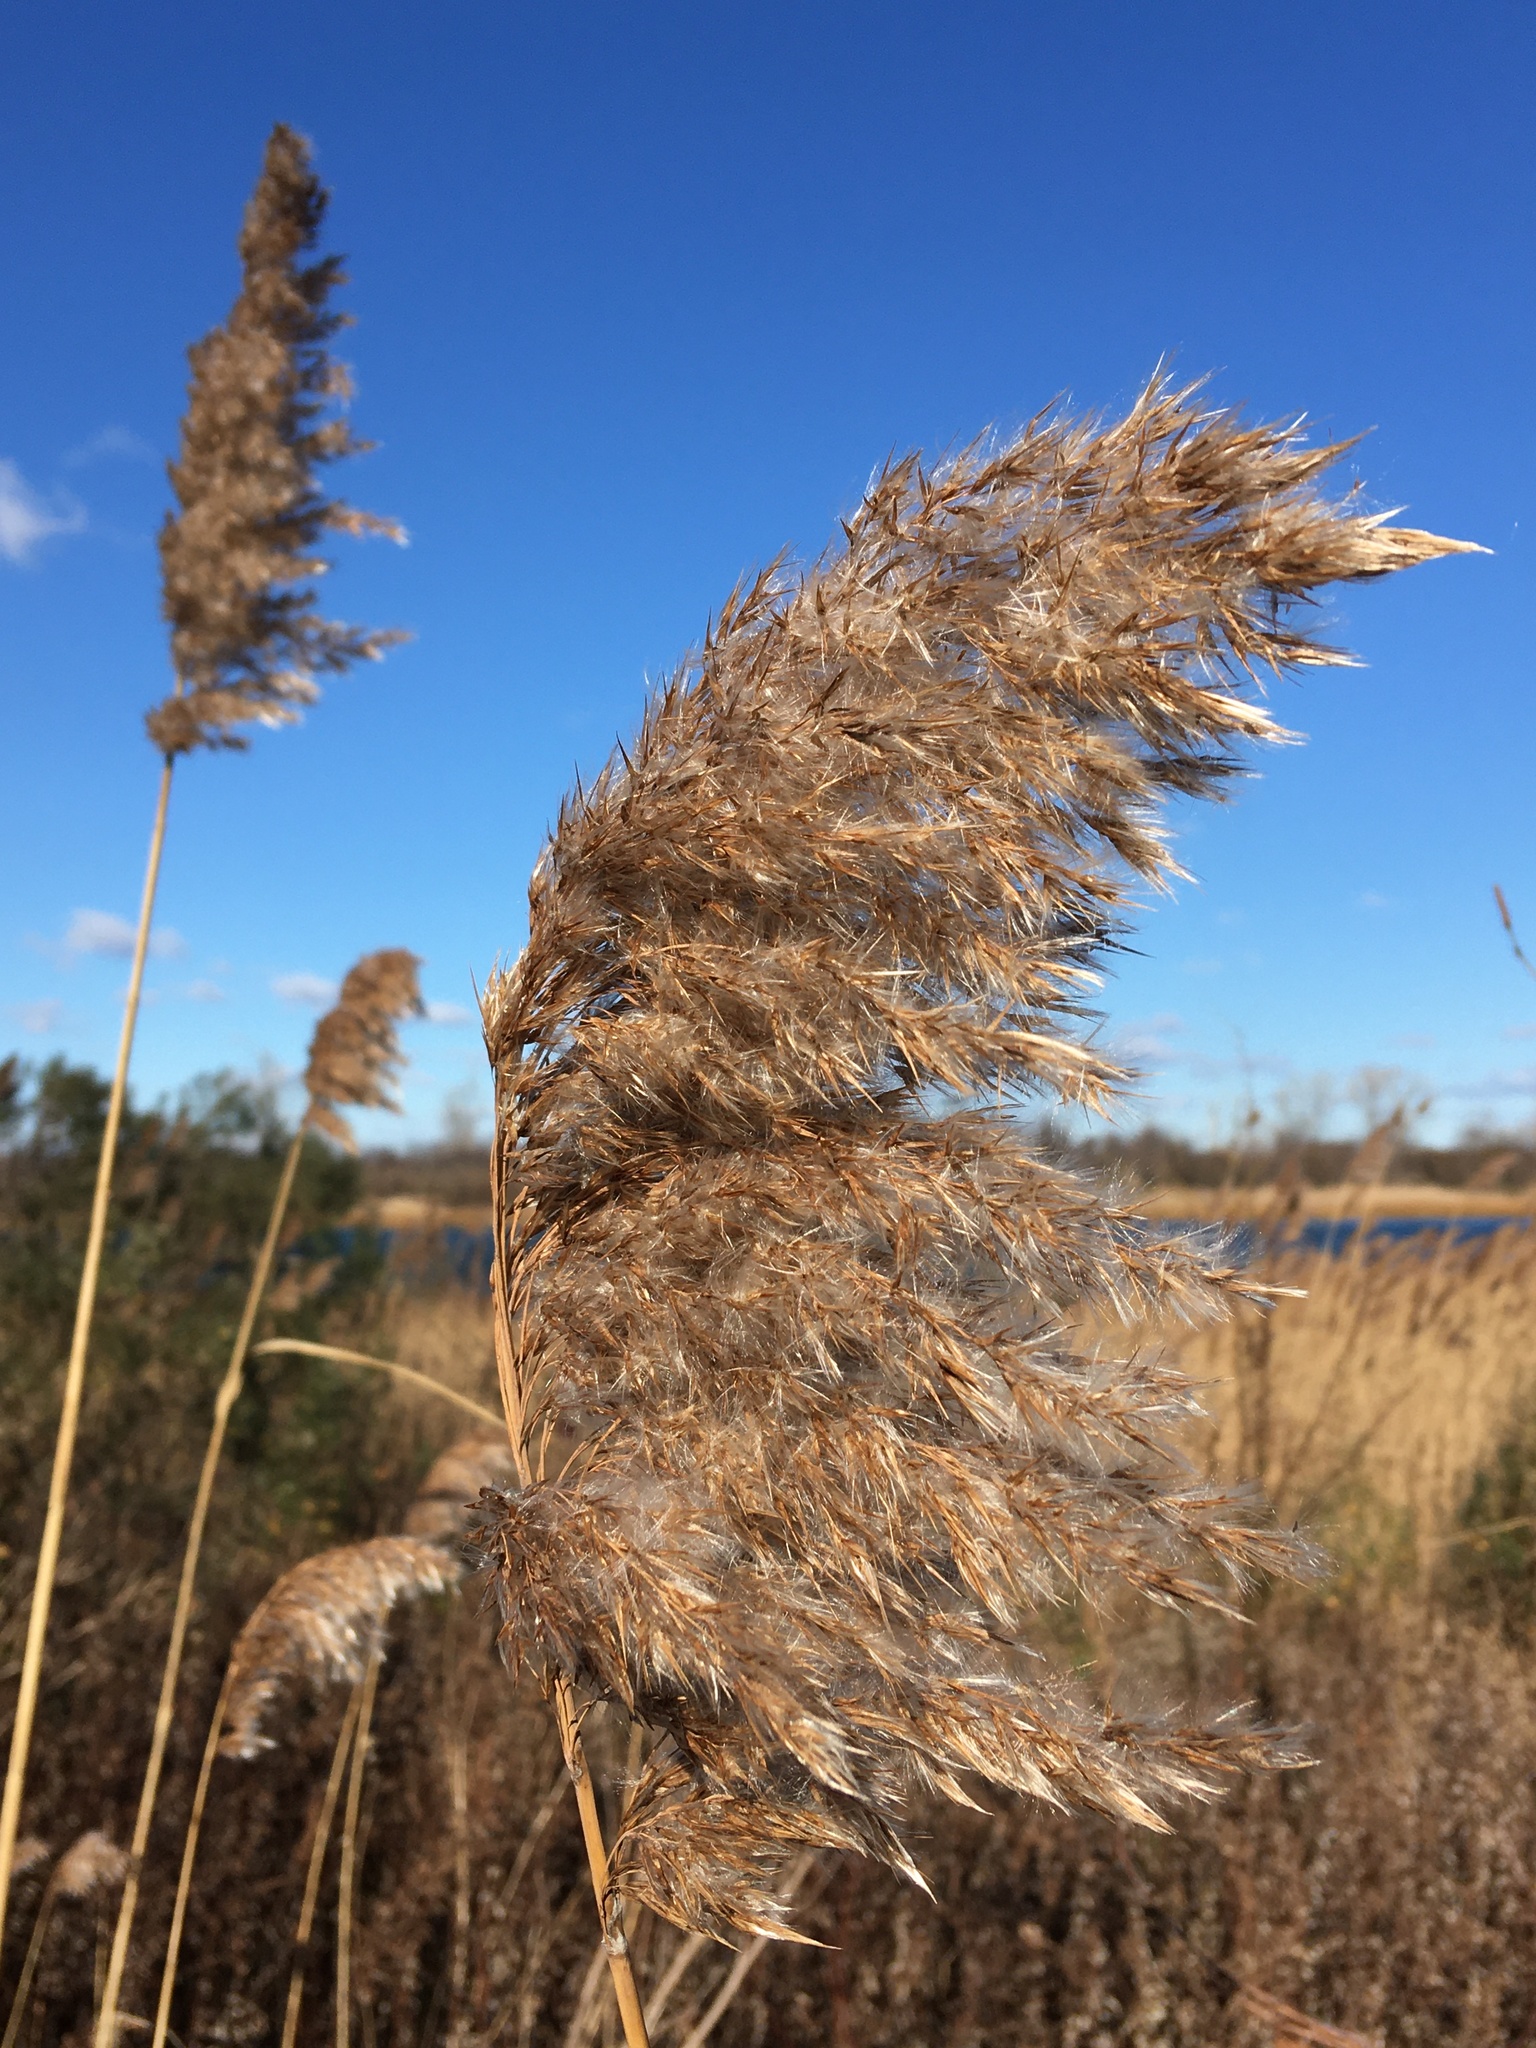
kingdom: Plantae
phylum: Tracheophyta
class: Liliopsida
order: Poales
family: Poaceae
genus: Phragmites
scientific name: Phragmites australis
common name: Common reed
